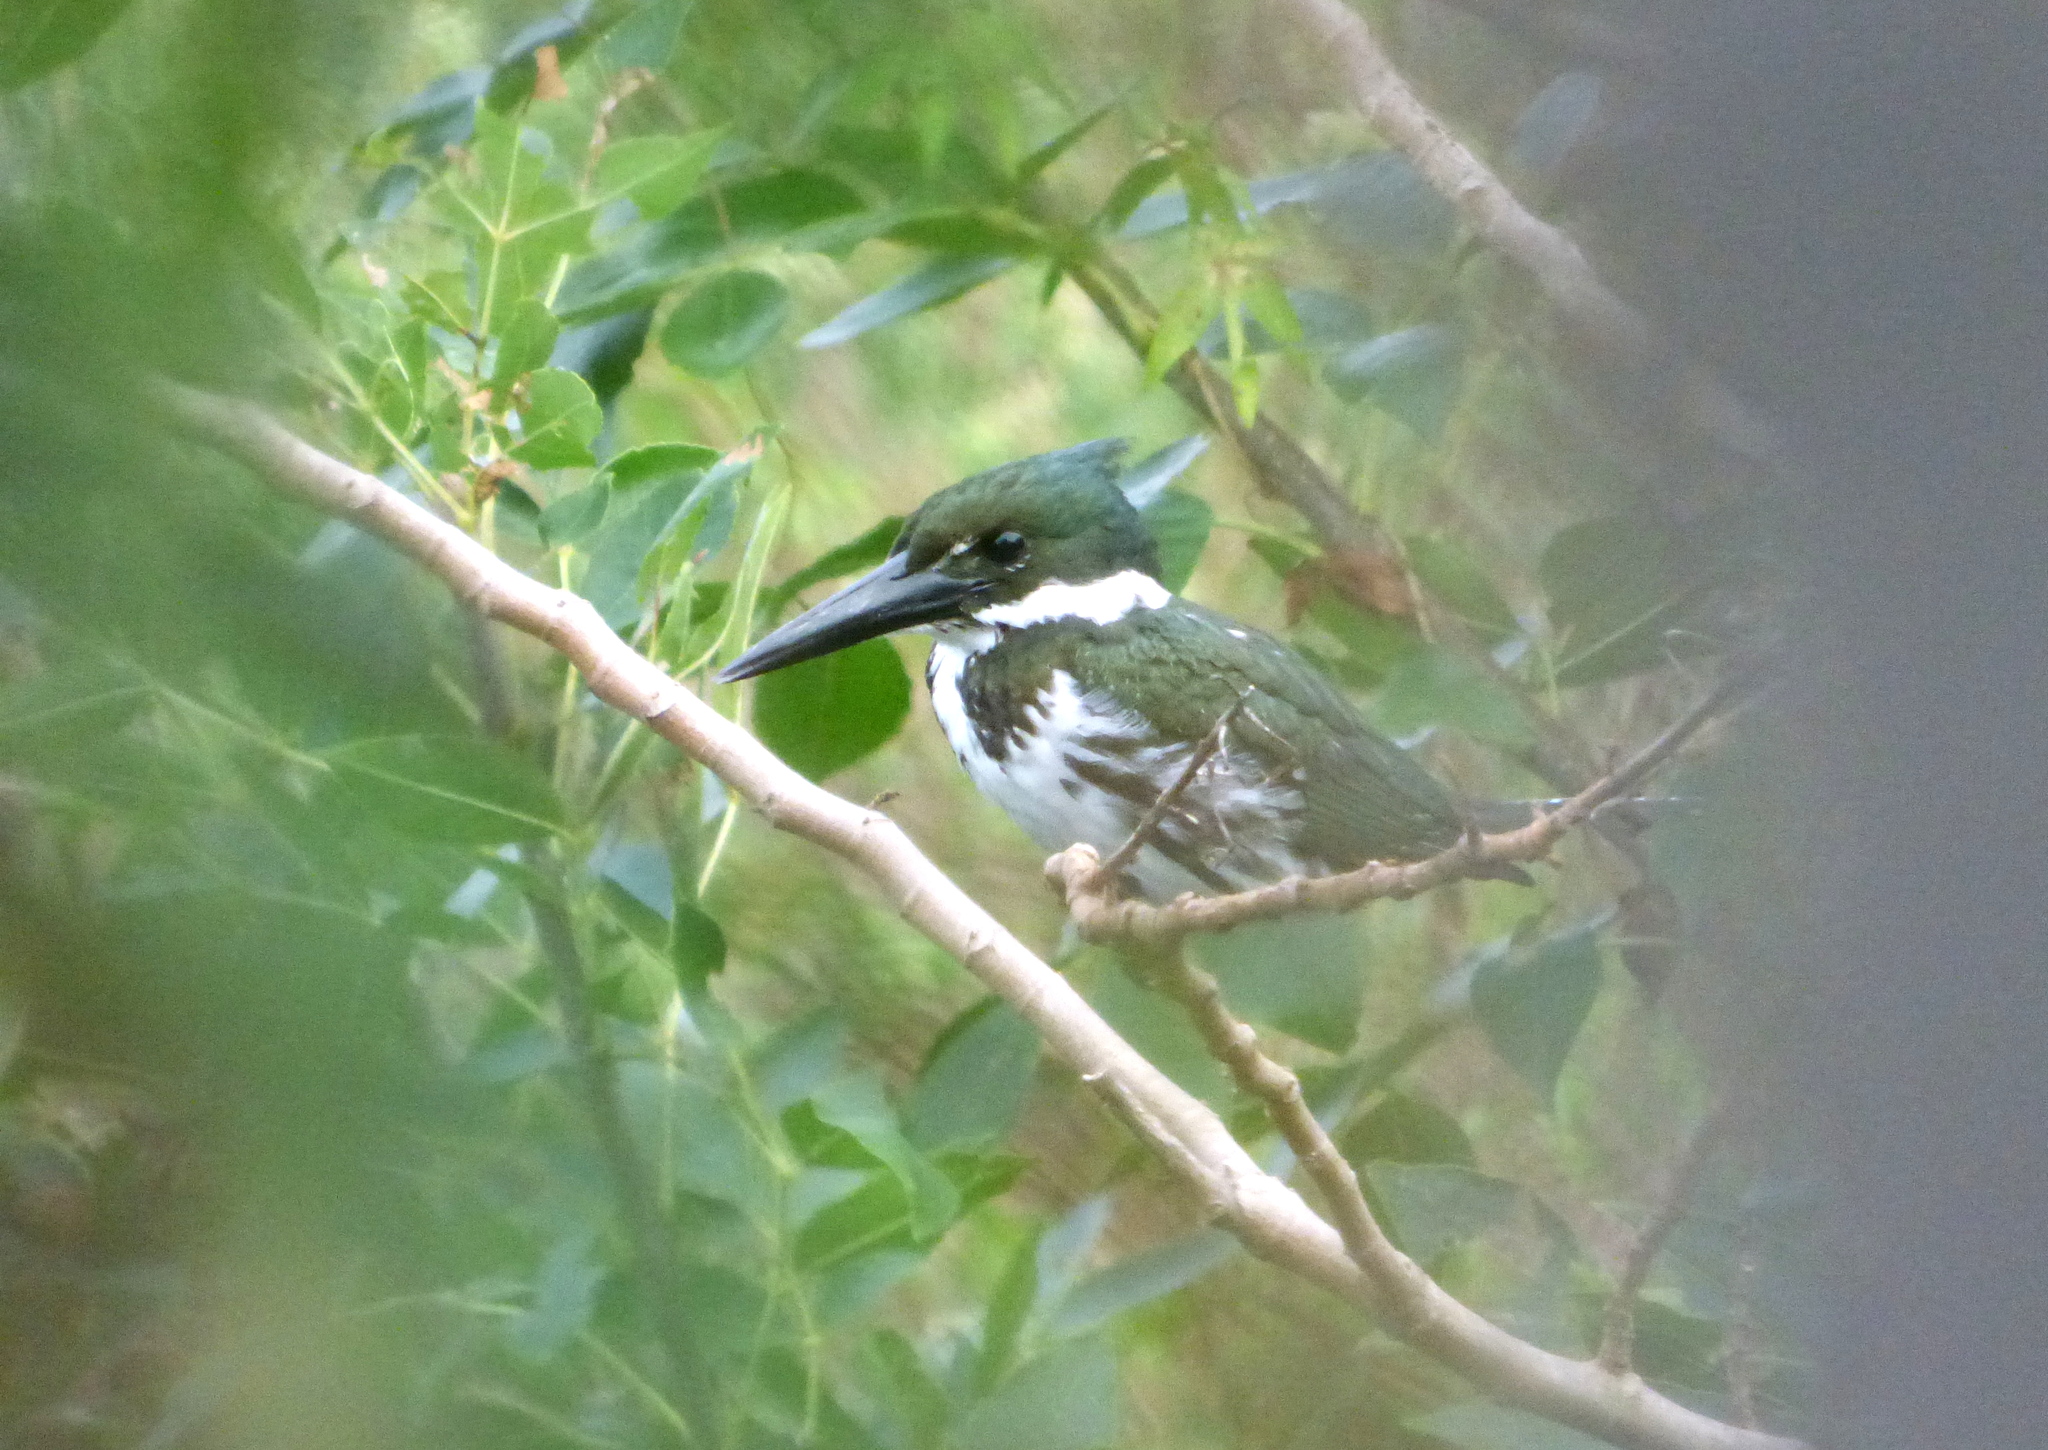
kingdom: Animalia
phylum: Chordata
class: Aves
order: Coraciiformes
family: Alcedinidae
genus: Chloroceryle
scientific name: Chloroceryle amazona
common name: Amazon kingfisher
